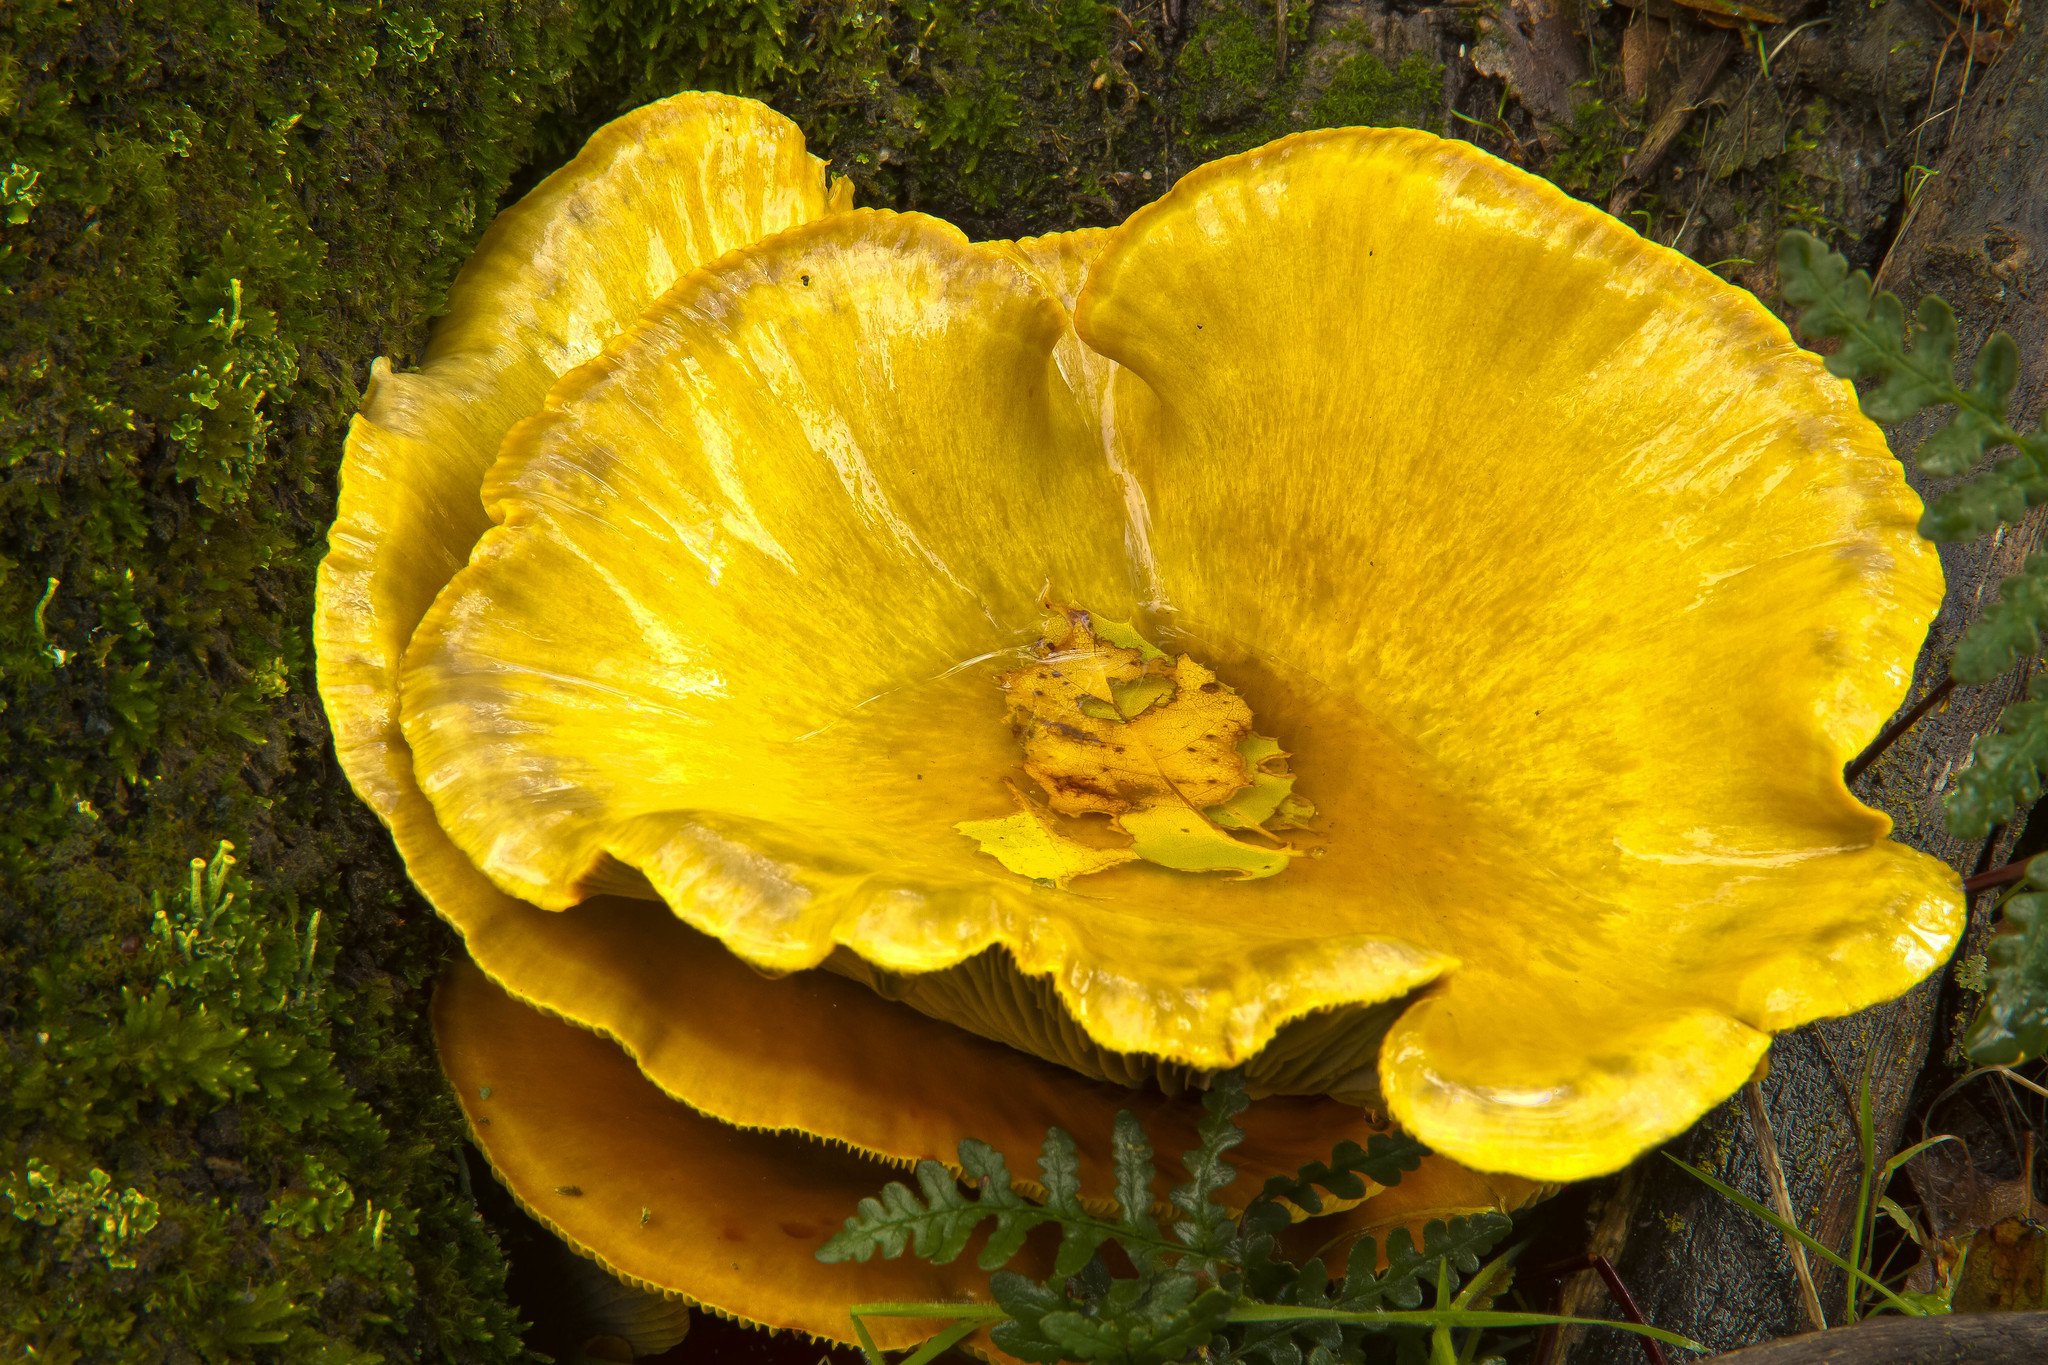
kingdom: Fungi
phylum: Basidiomycota
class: Agaricomycetes
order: Agaricales
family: Omphalotaceae
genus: Omphalotus
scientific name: Omphalotus olivascens
